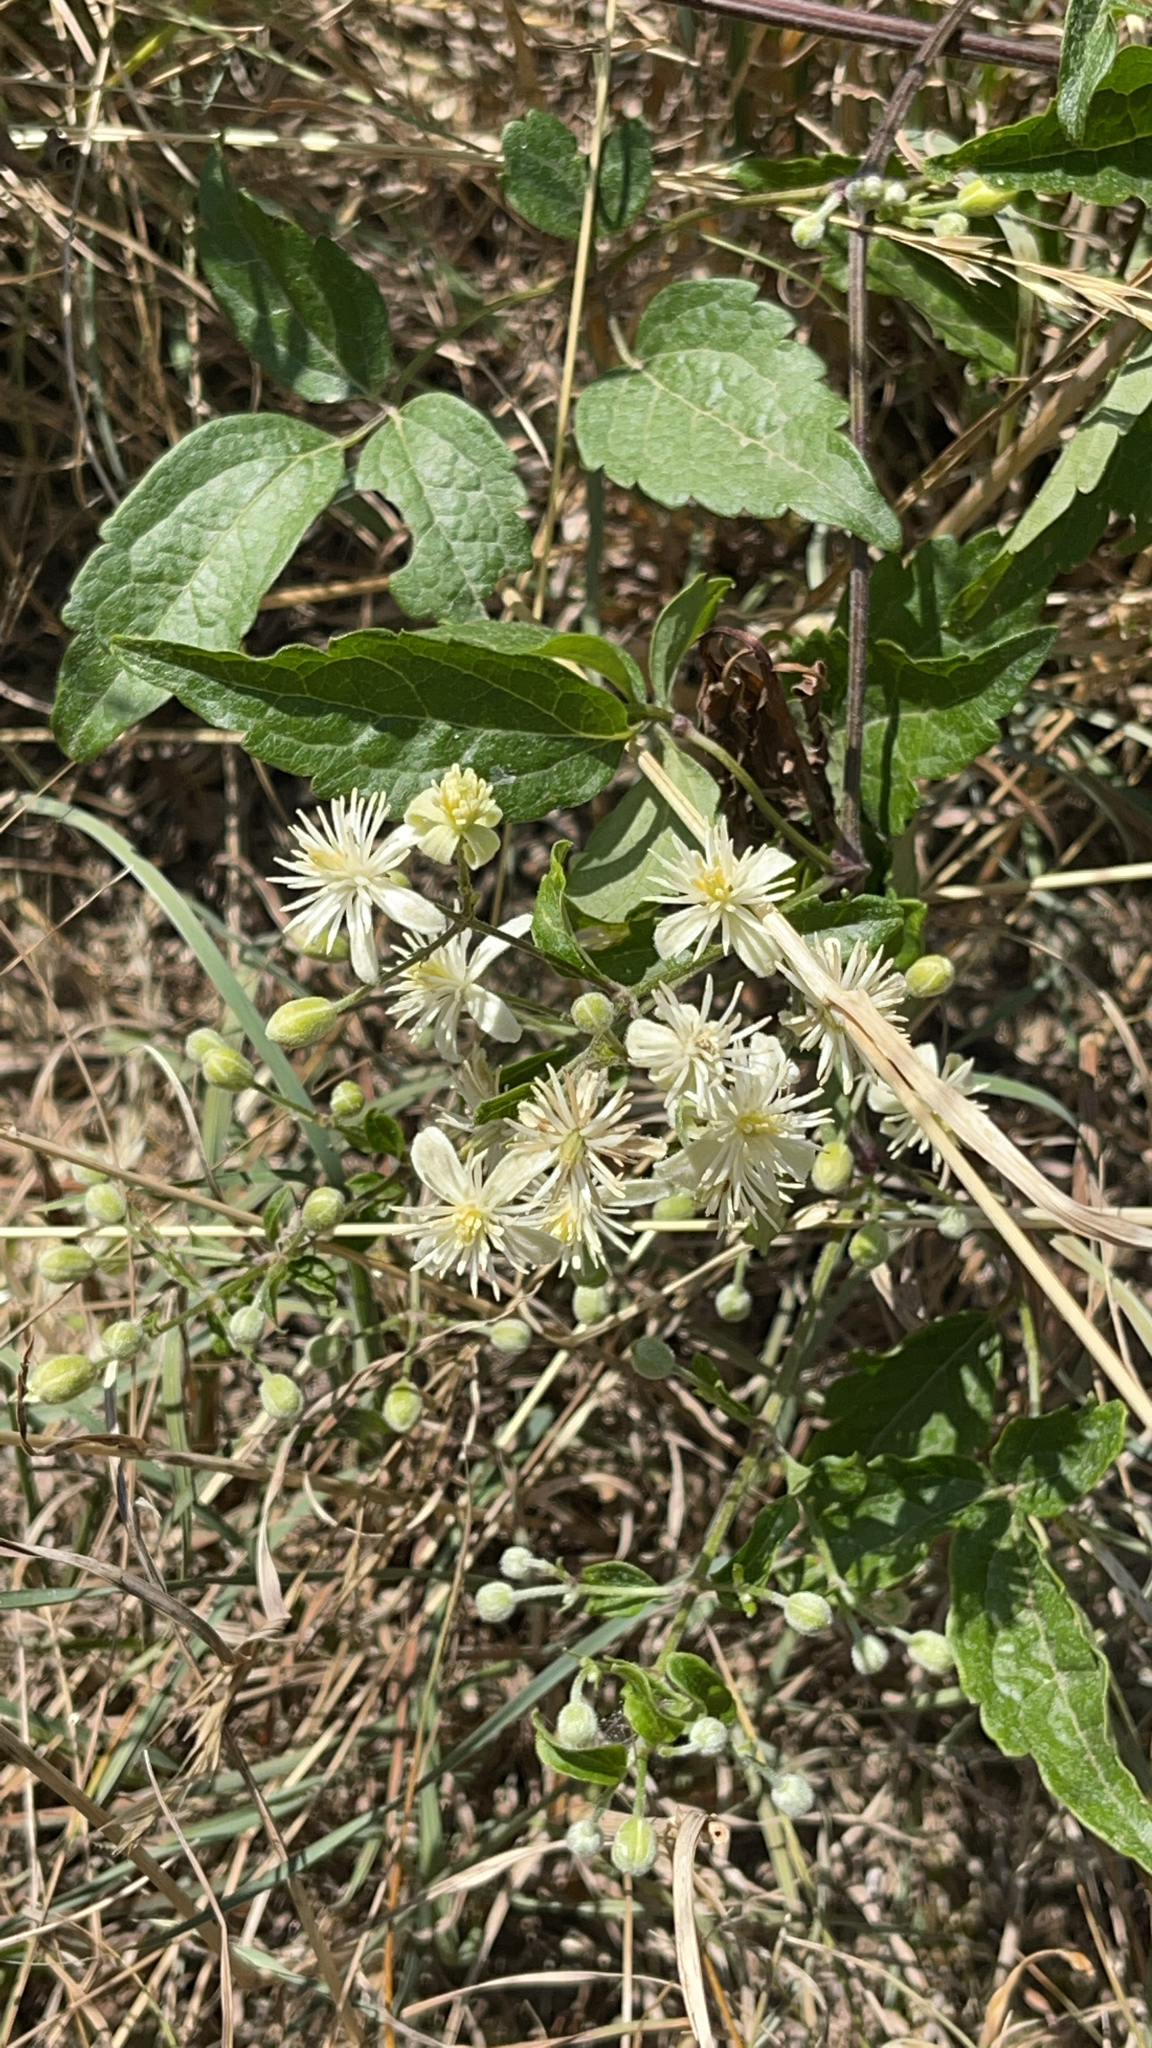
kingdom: Plantae
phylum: Tracheophyta
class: Magnoliopsida
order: Ranunculales
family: Ranunculaceae
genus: Clematis
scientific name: Clematis vitalba
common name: Evergreen clematis
